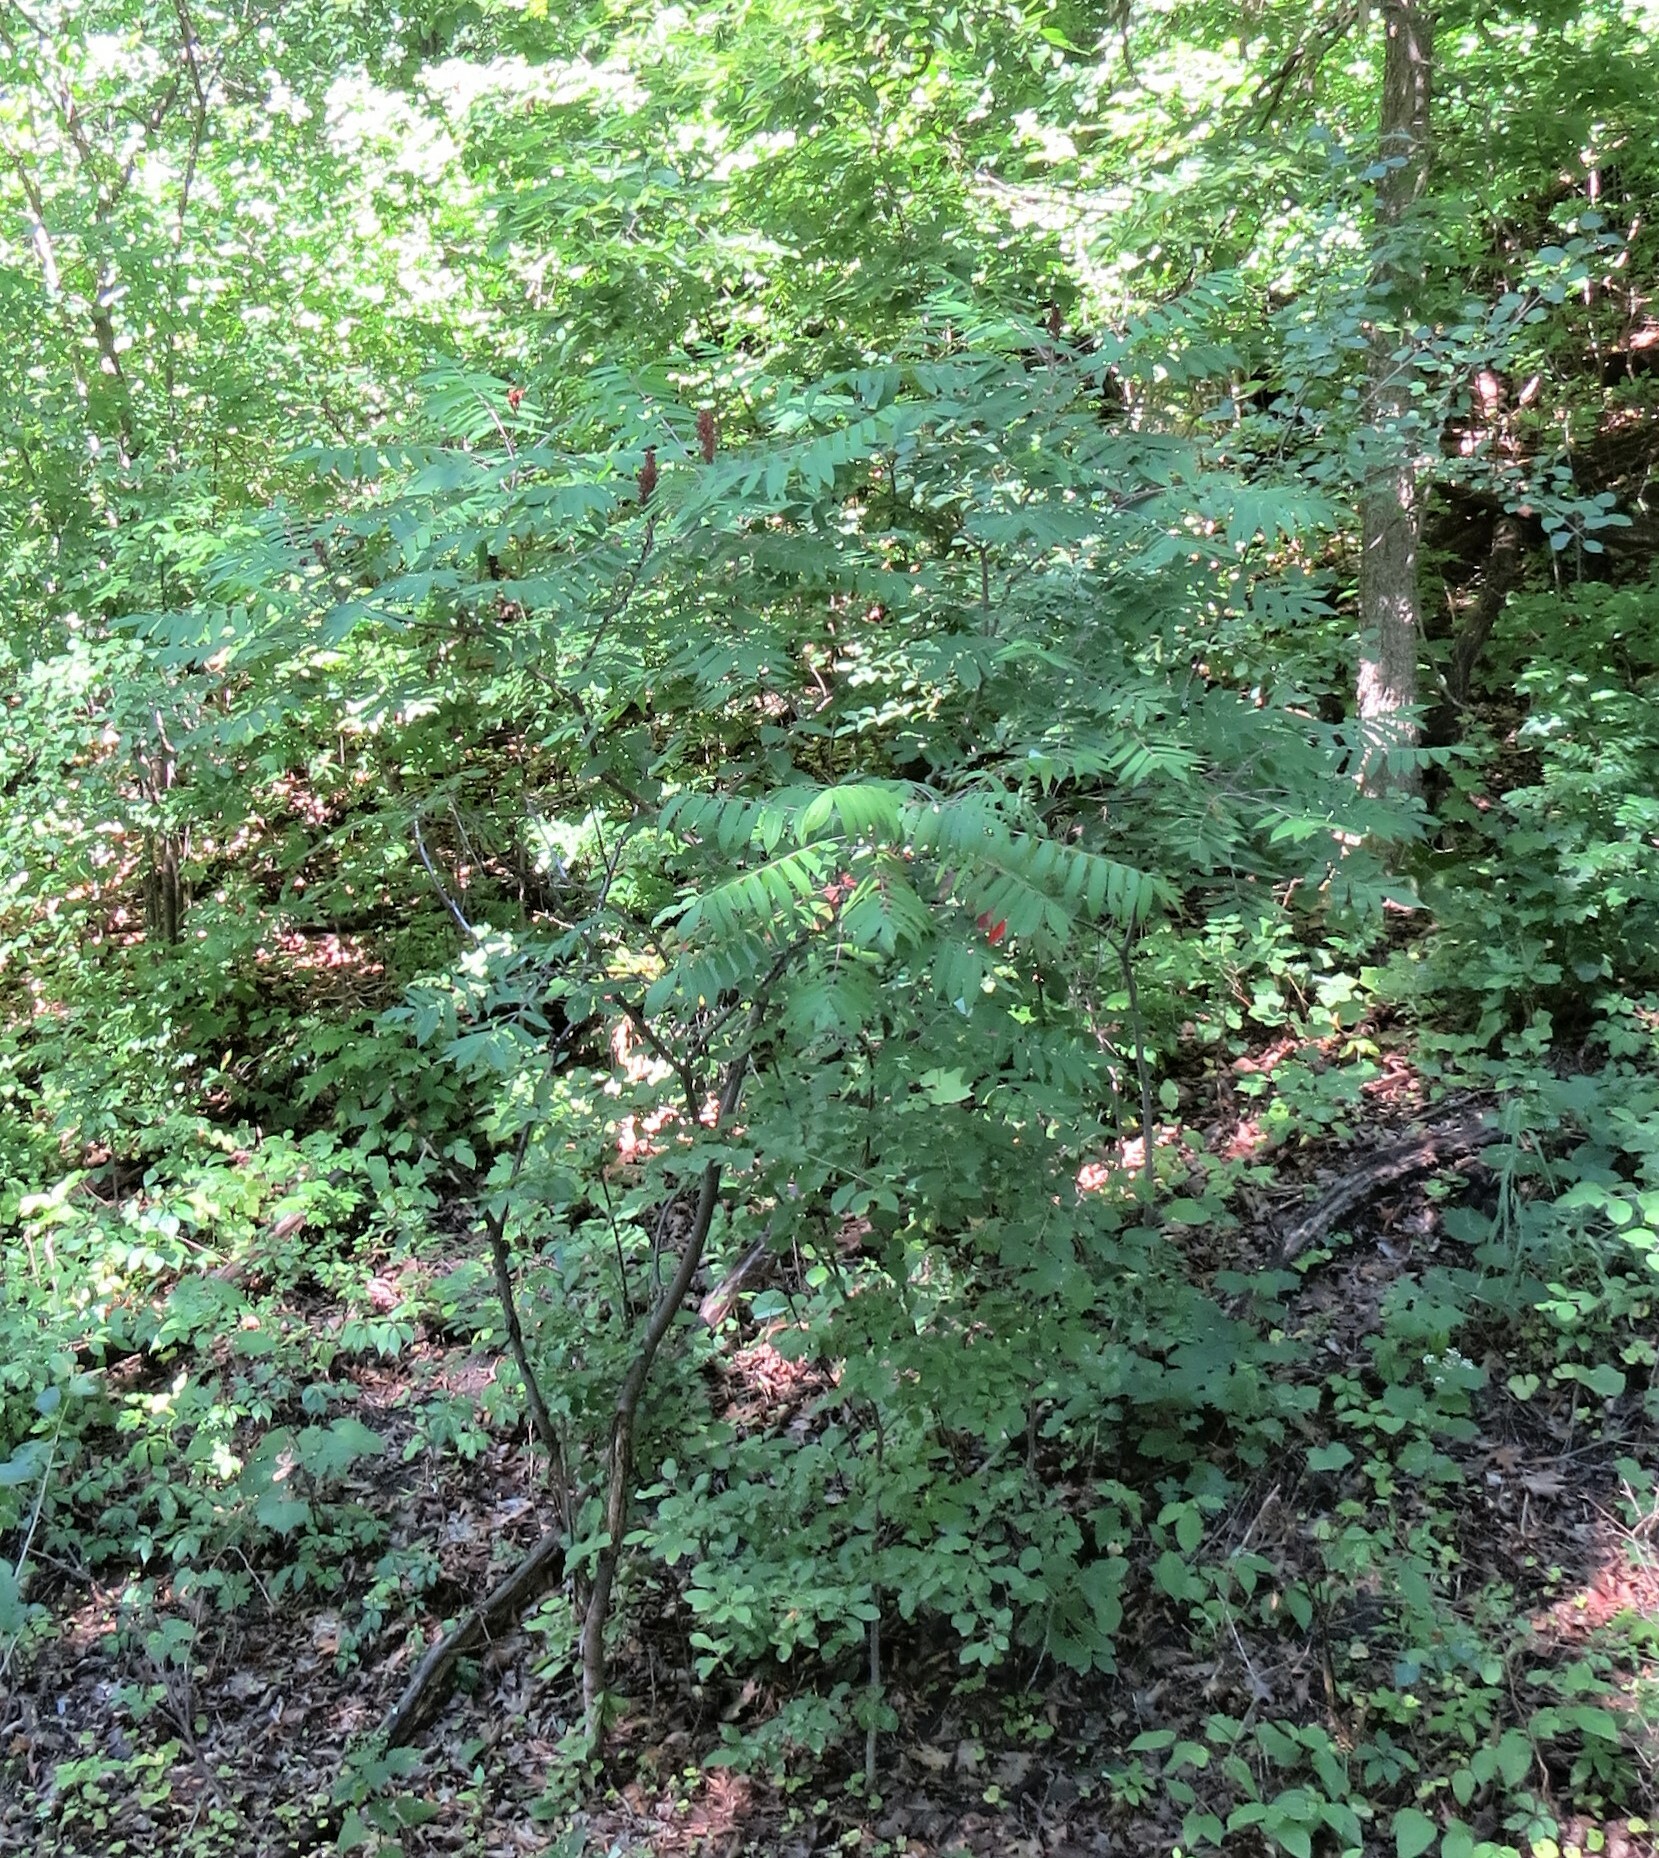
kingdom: Plantae
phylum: Tracheophyta
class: Magnoliopsida
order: Sapindales
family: Anacardiaceae
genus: Rhus
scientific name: Rhus glabra
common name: Scarlet sumac
